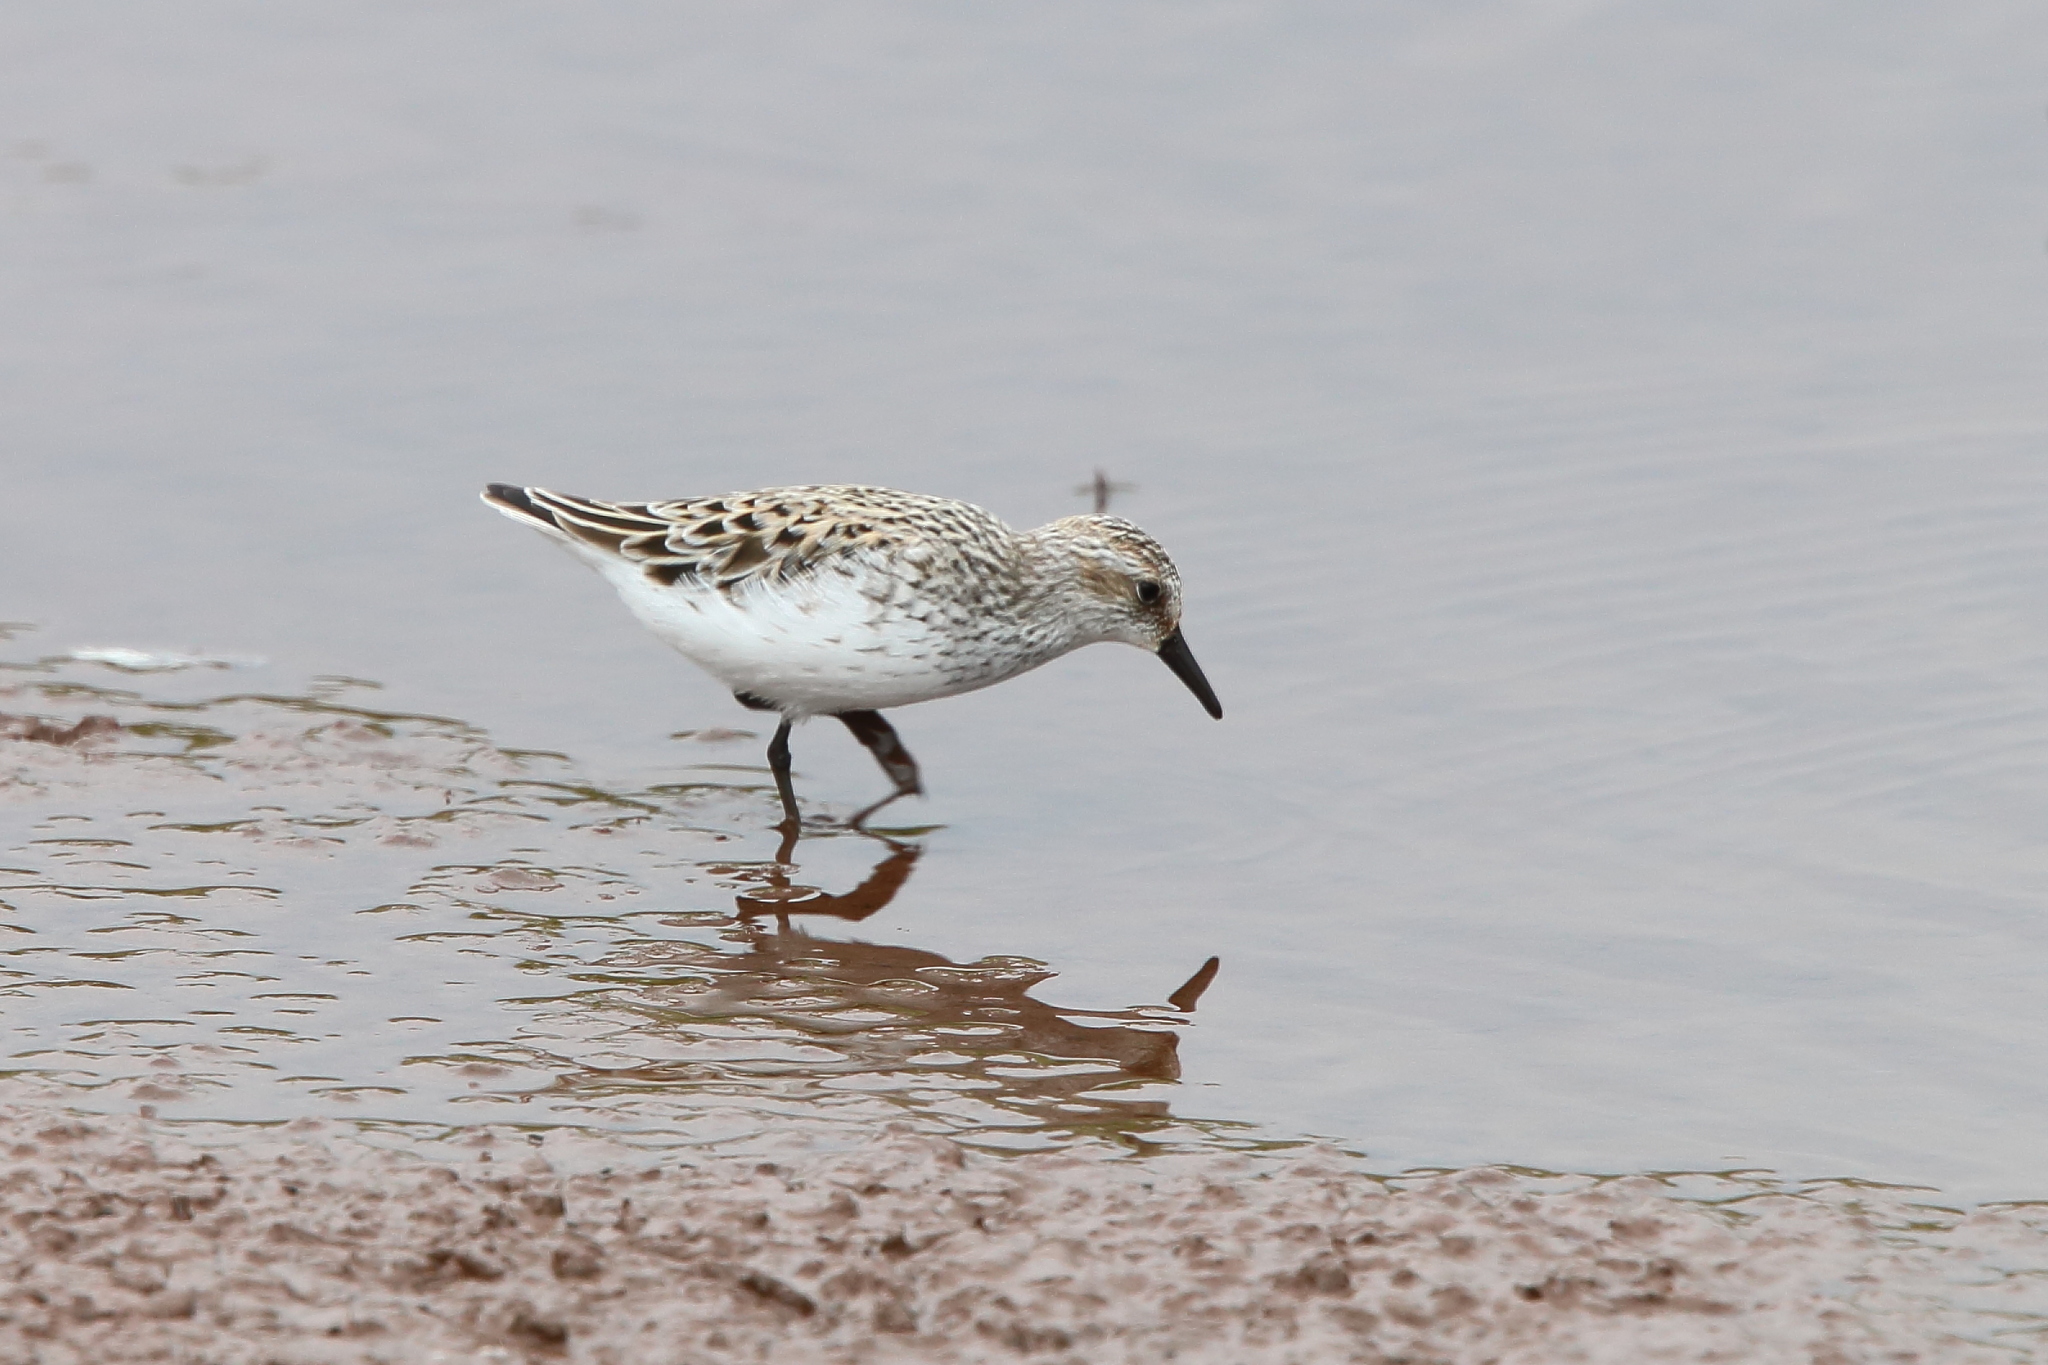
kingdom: Animalia
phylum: Chordata
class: Aves
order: Charadriiformes
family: Scolopacidae
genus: Calidris
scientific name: Calidris pusilla
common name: Semipalmated sandpiper
